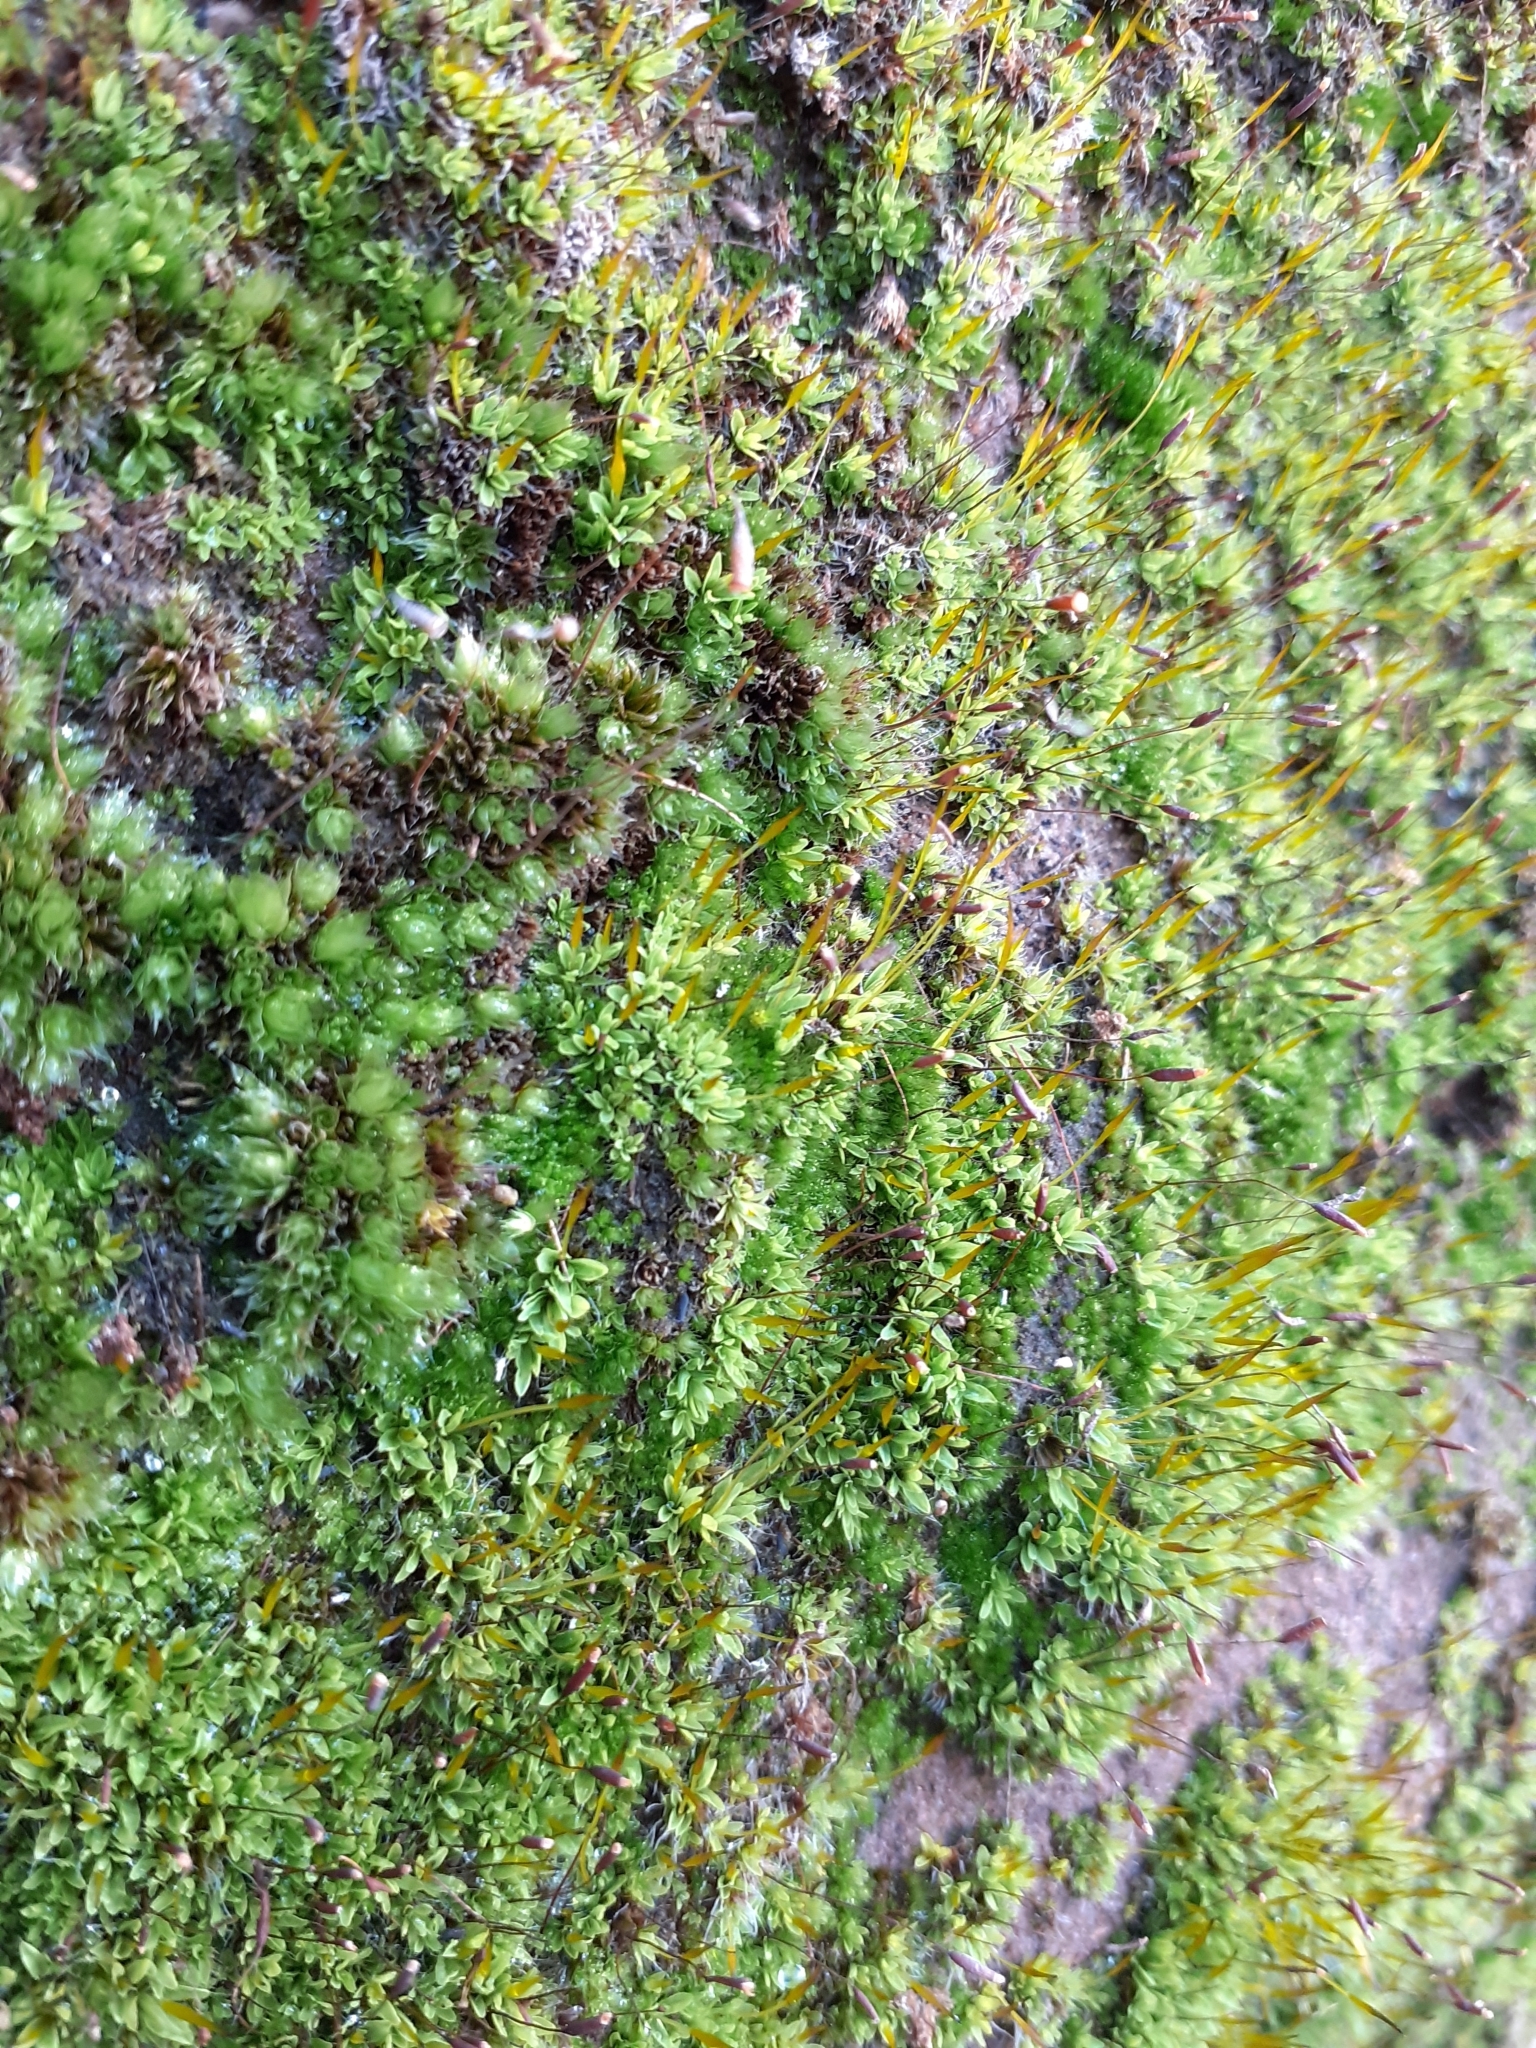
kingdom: Plantae
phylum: Bryophyta
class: Bryopsida
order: Pottiales
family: Pottiaceae
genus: Tortula
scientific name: Tortula muralis
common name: Wall screw-moss
